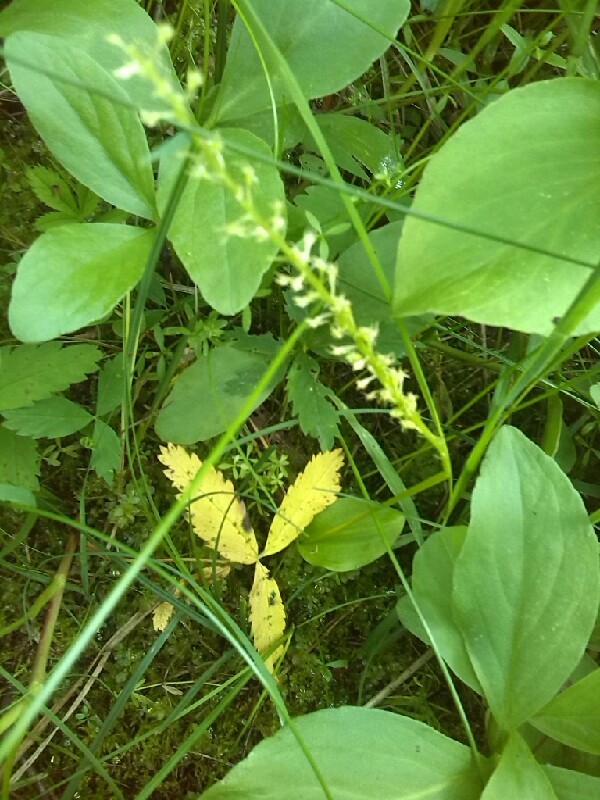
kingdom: Plantae
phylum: Tracheophyta
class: Liliopsida
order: Asparagales
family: Orchidaceae
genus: Malaxis
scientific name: Malaxis monophyllos
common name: White adder's-mouth
